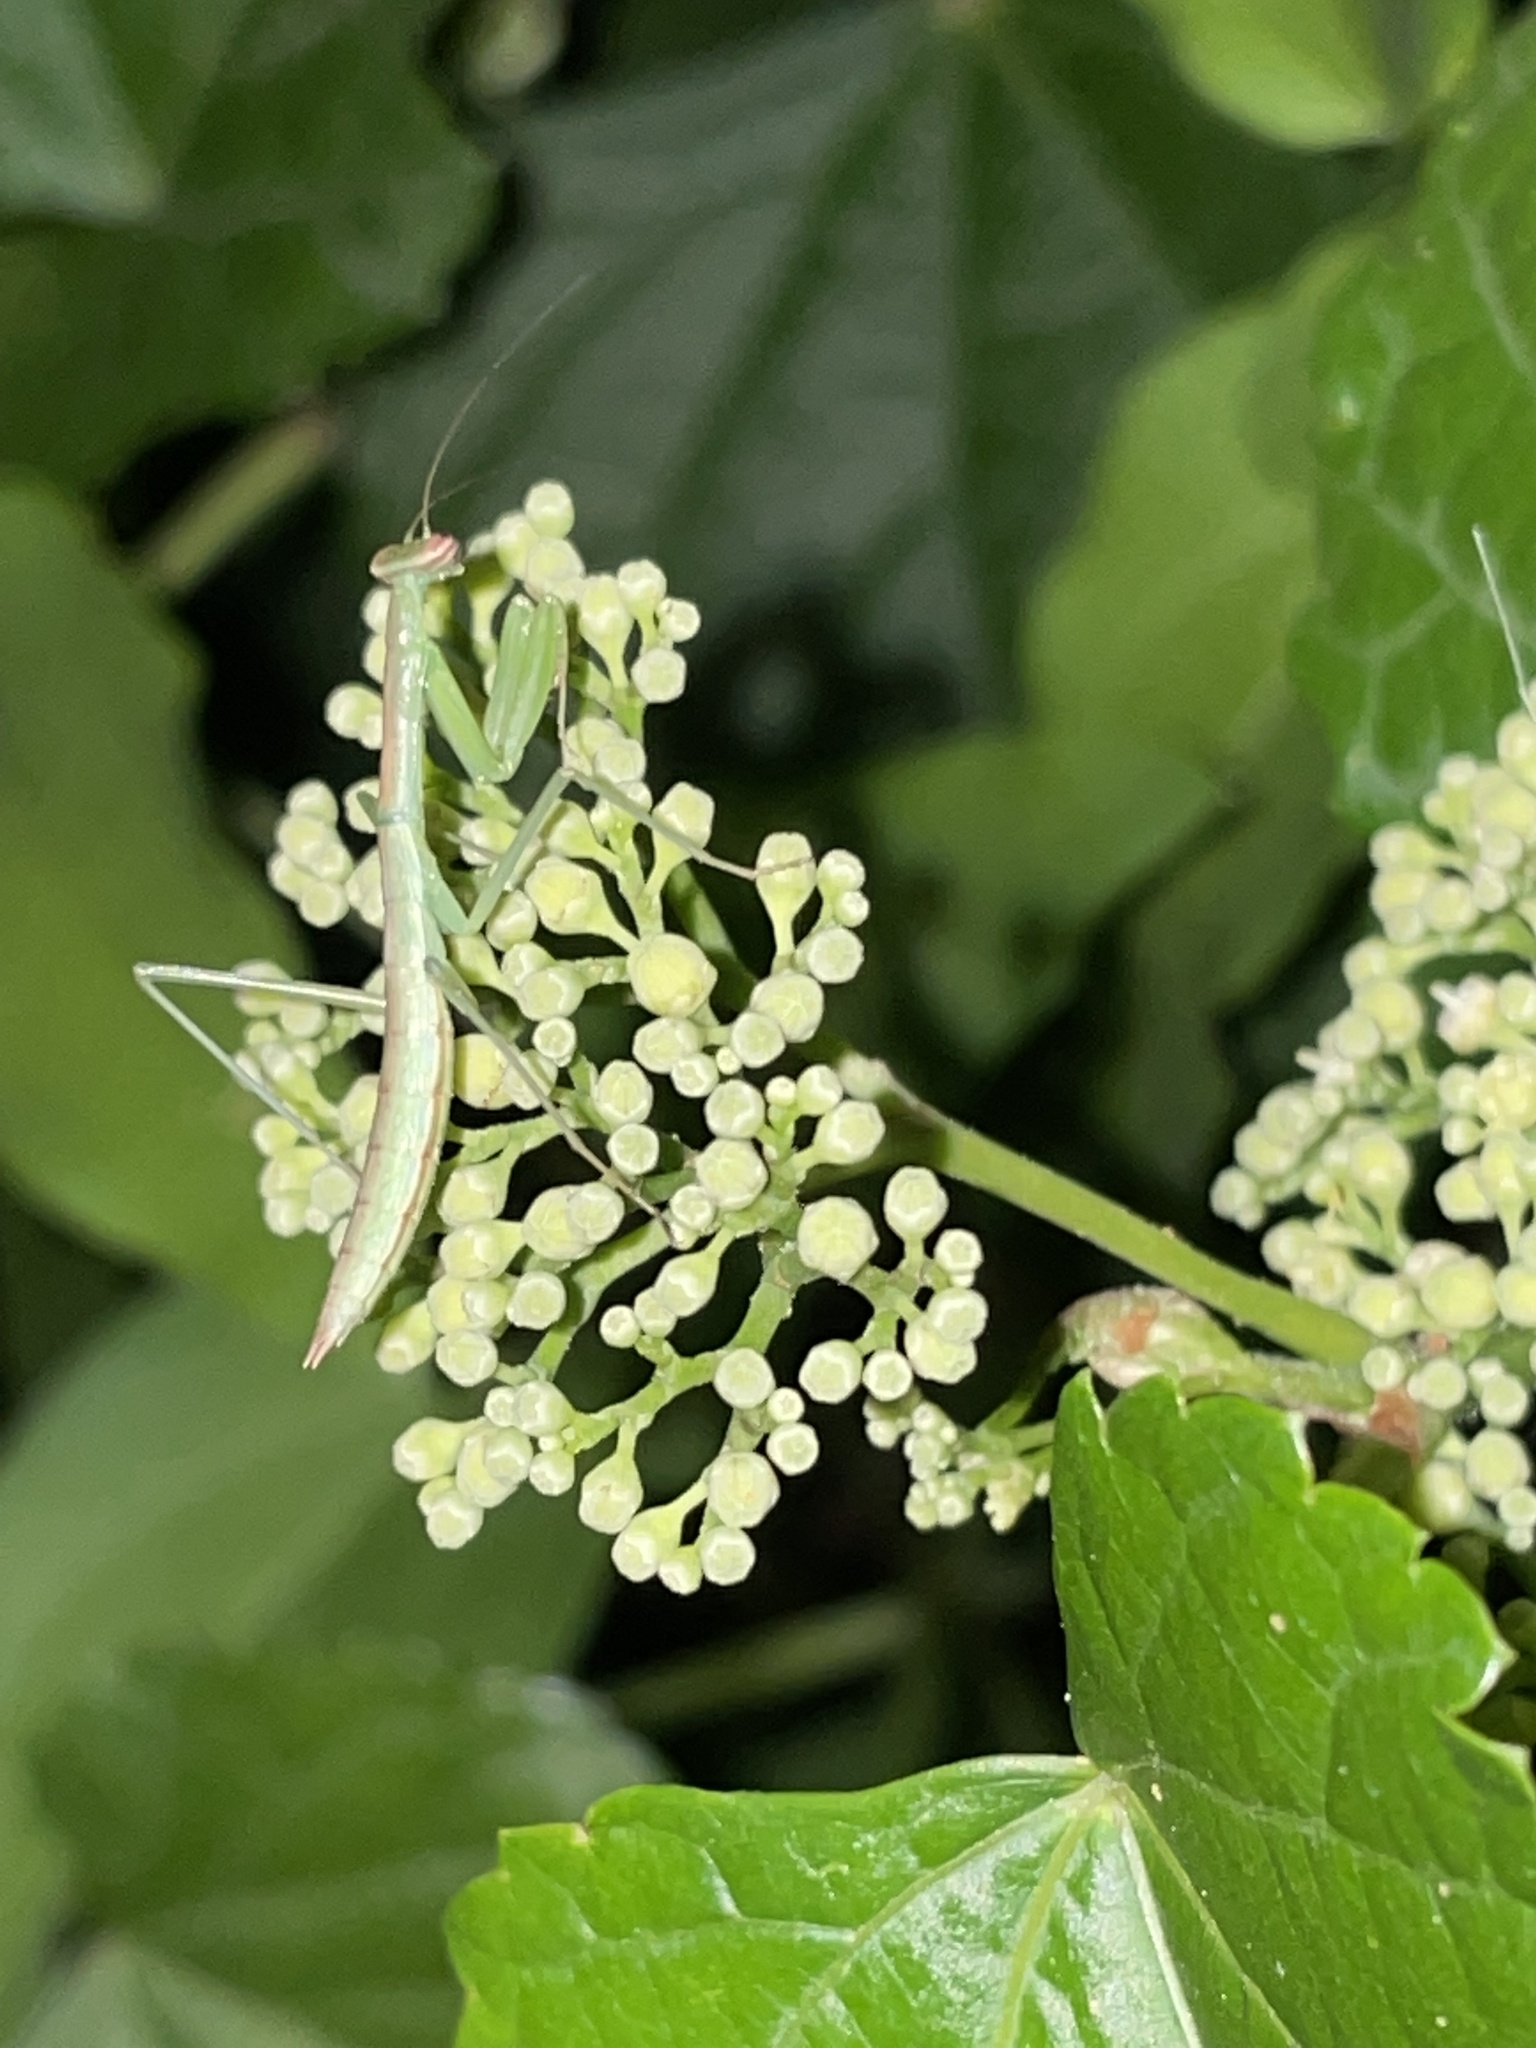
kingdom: Animalia
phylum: Arthropoda
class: Insecta
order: Mantodea
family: Mantidae
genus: Tenodera
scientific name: Tenodera sinensis
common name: Chinese mantis
